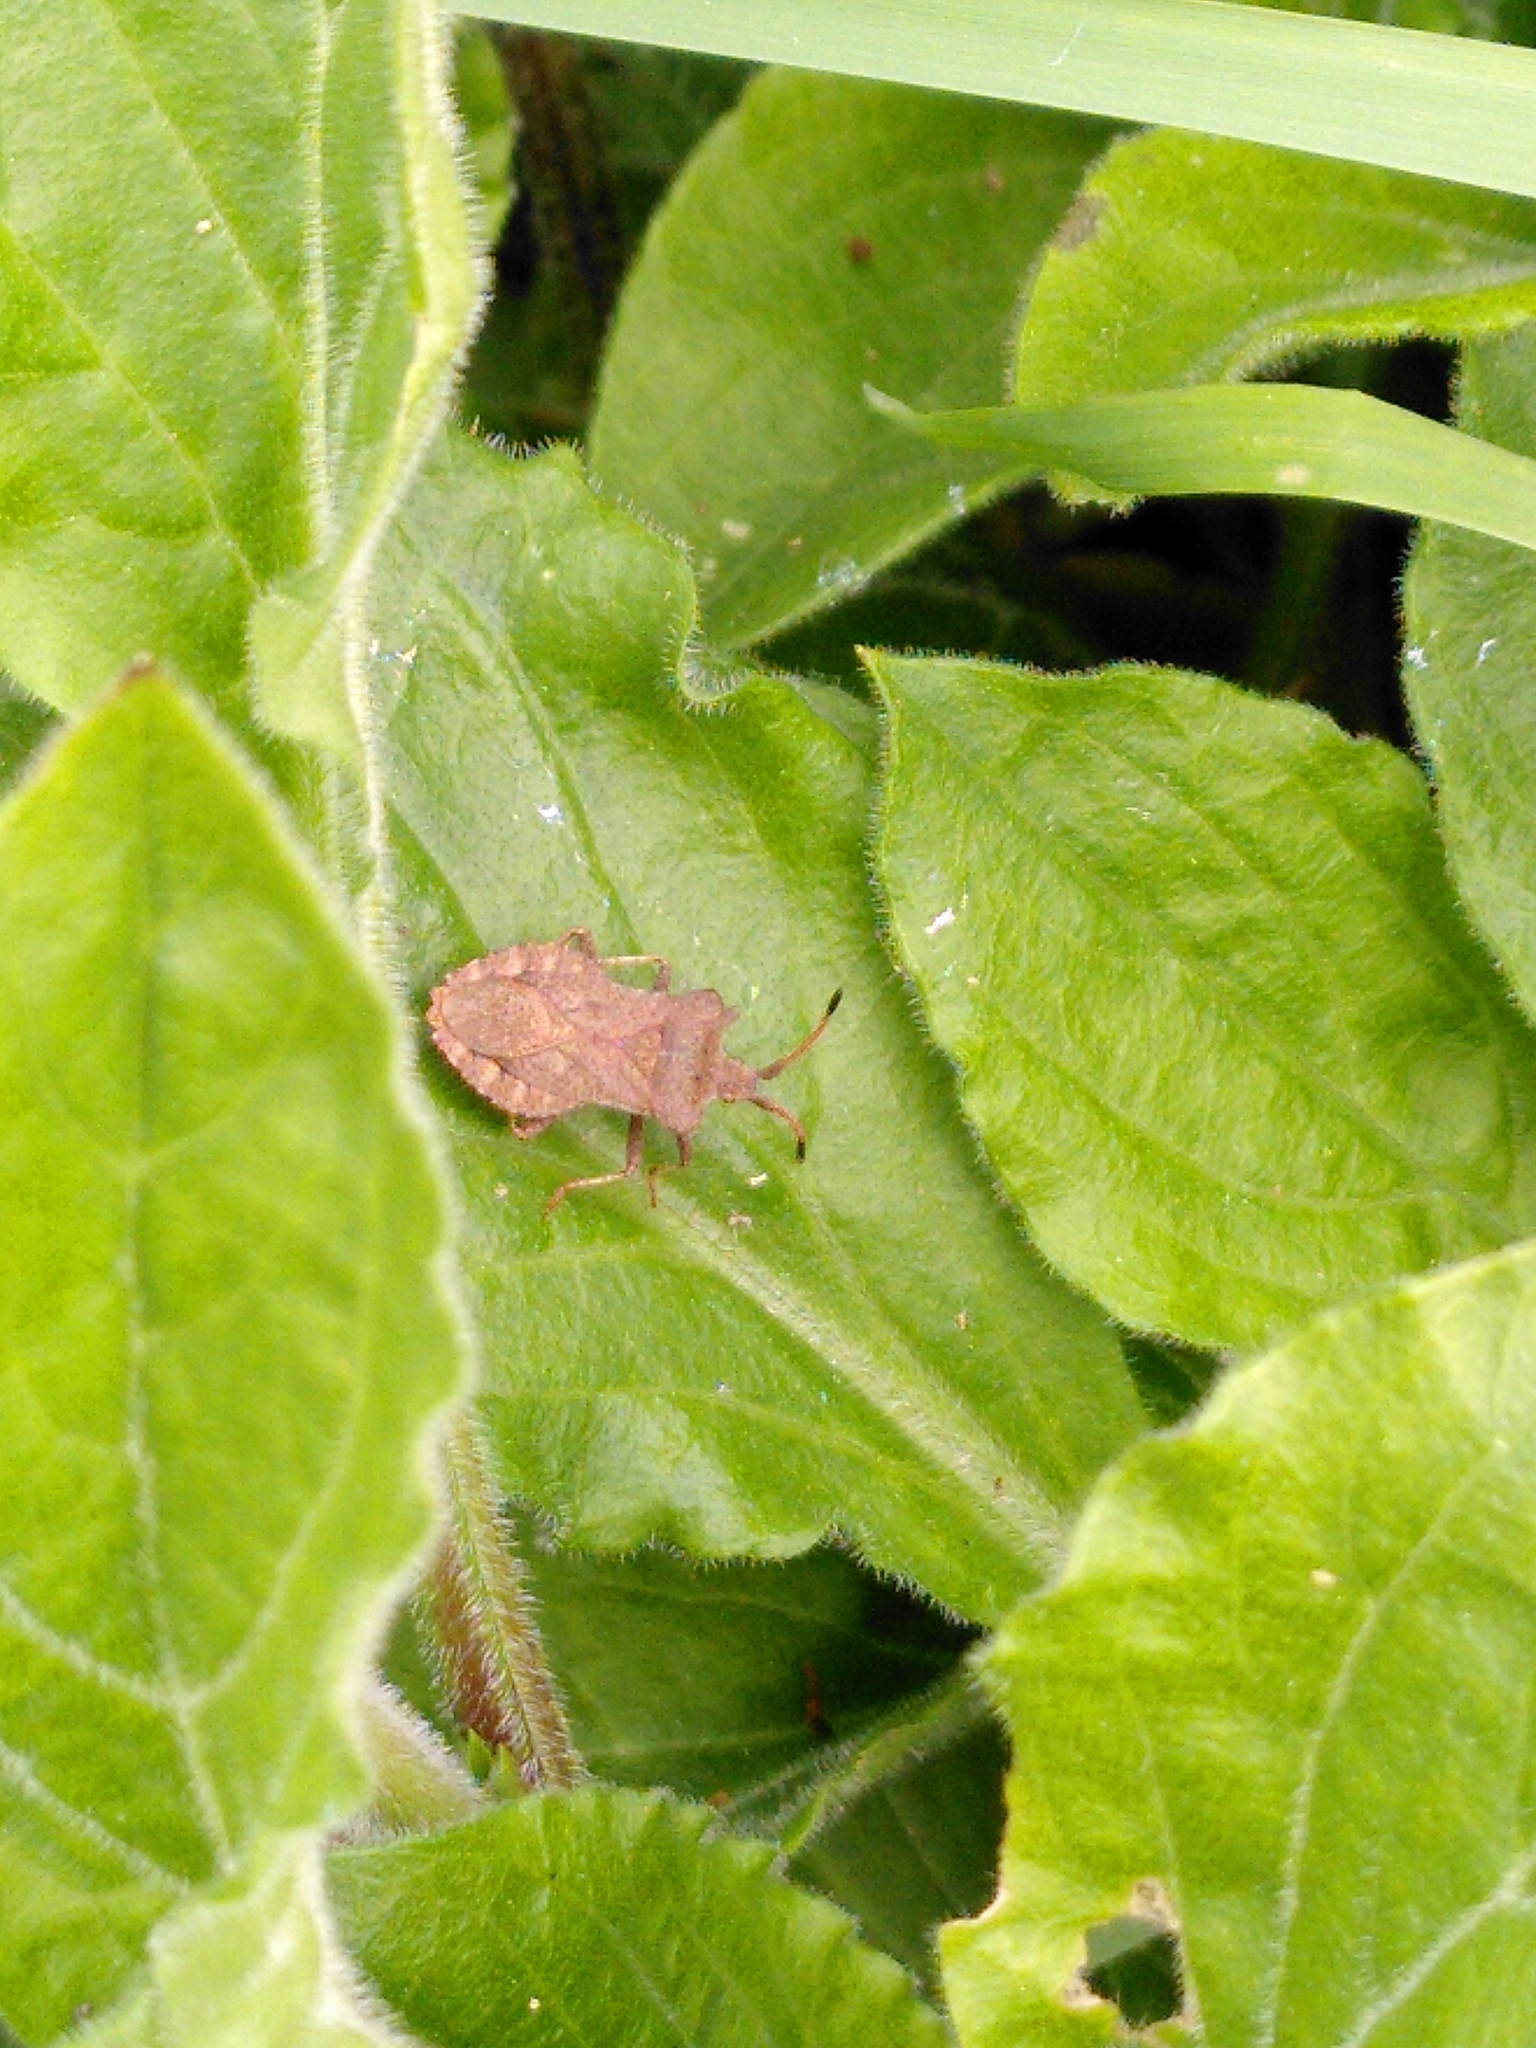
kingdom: Animalia
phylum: Arthropoda
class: Insecta
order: Hemiptera
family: Coreidae
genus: Coreus
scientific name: Coreus marginatus
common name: Dock bug
